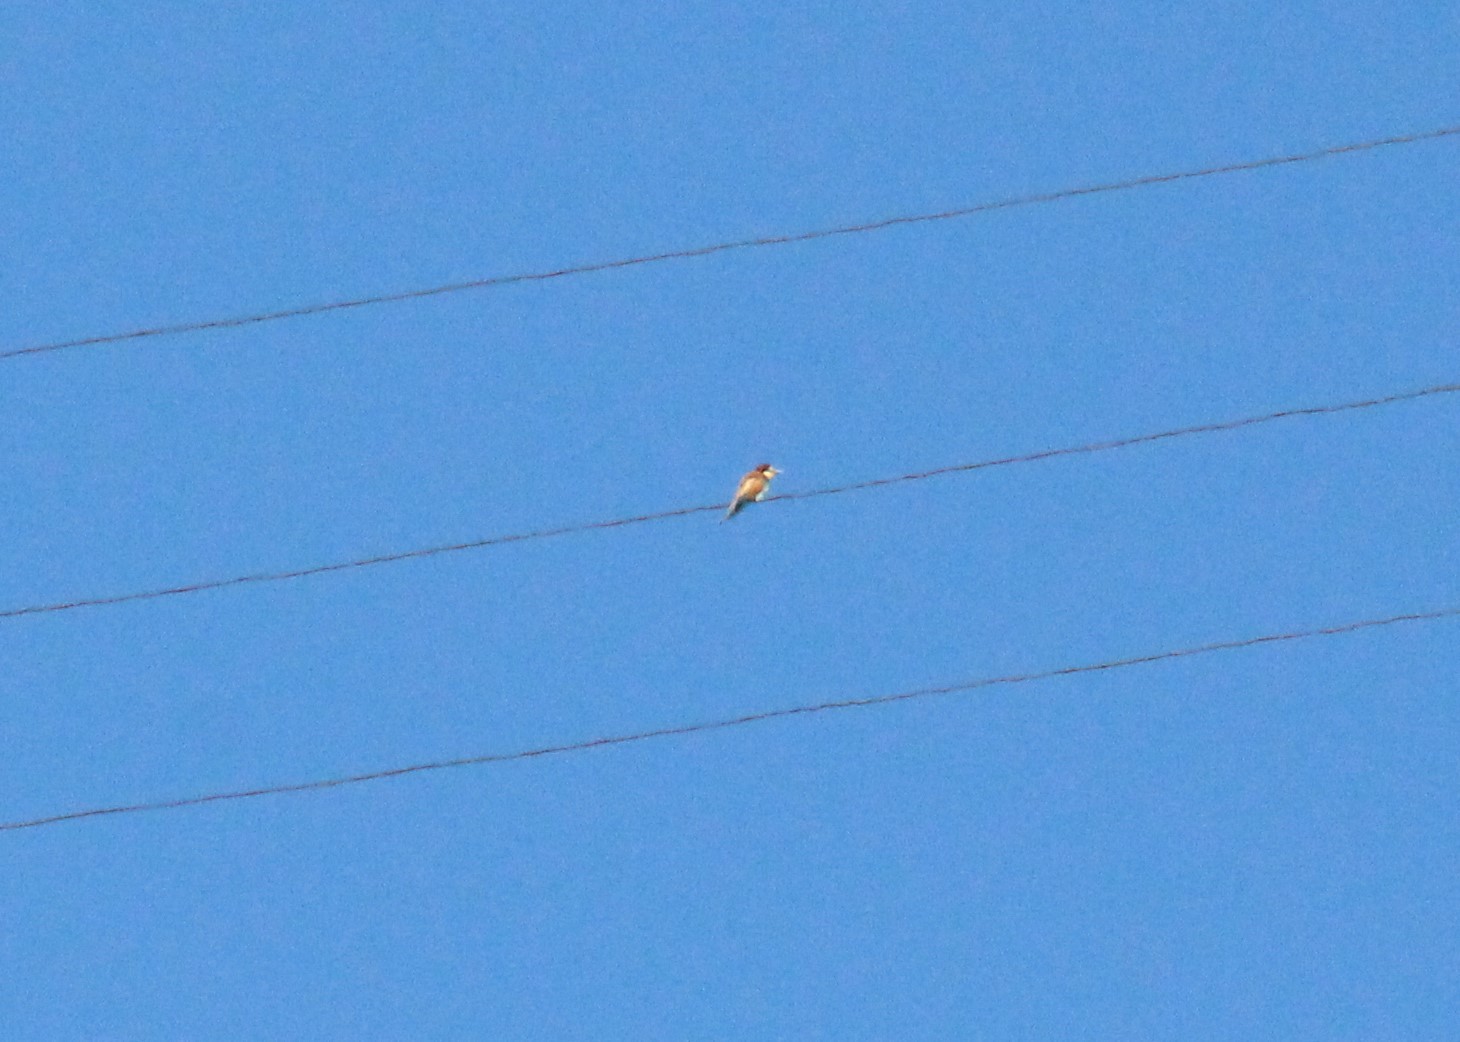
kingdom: Animalia
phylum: Chordata
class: Aves
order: Coraciiformes
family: Meropidae
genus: Merops
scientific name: Merops apiaster
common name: European bee-eater
